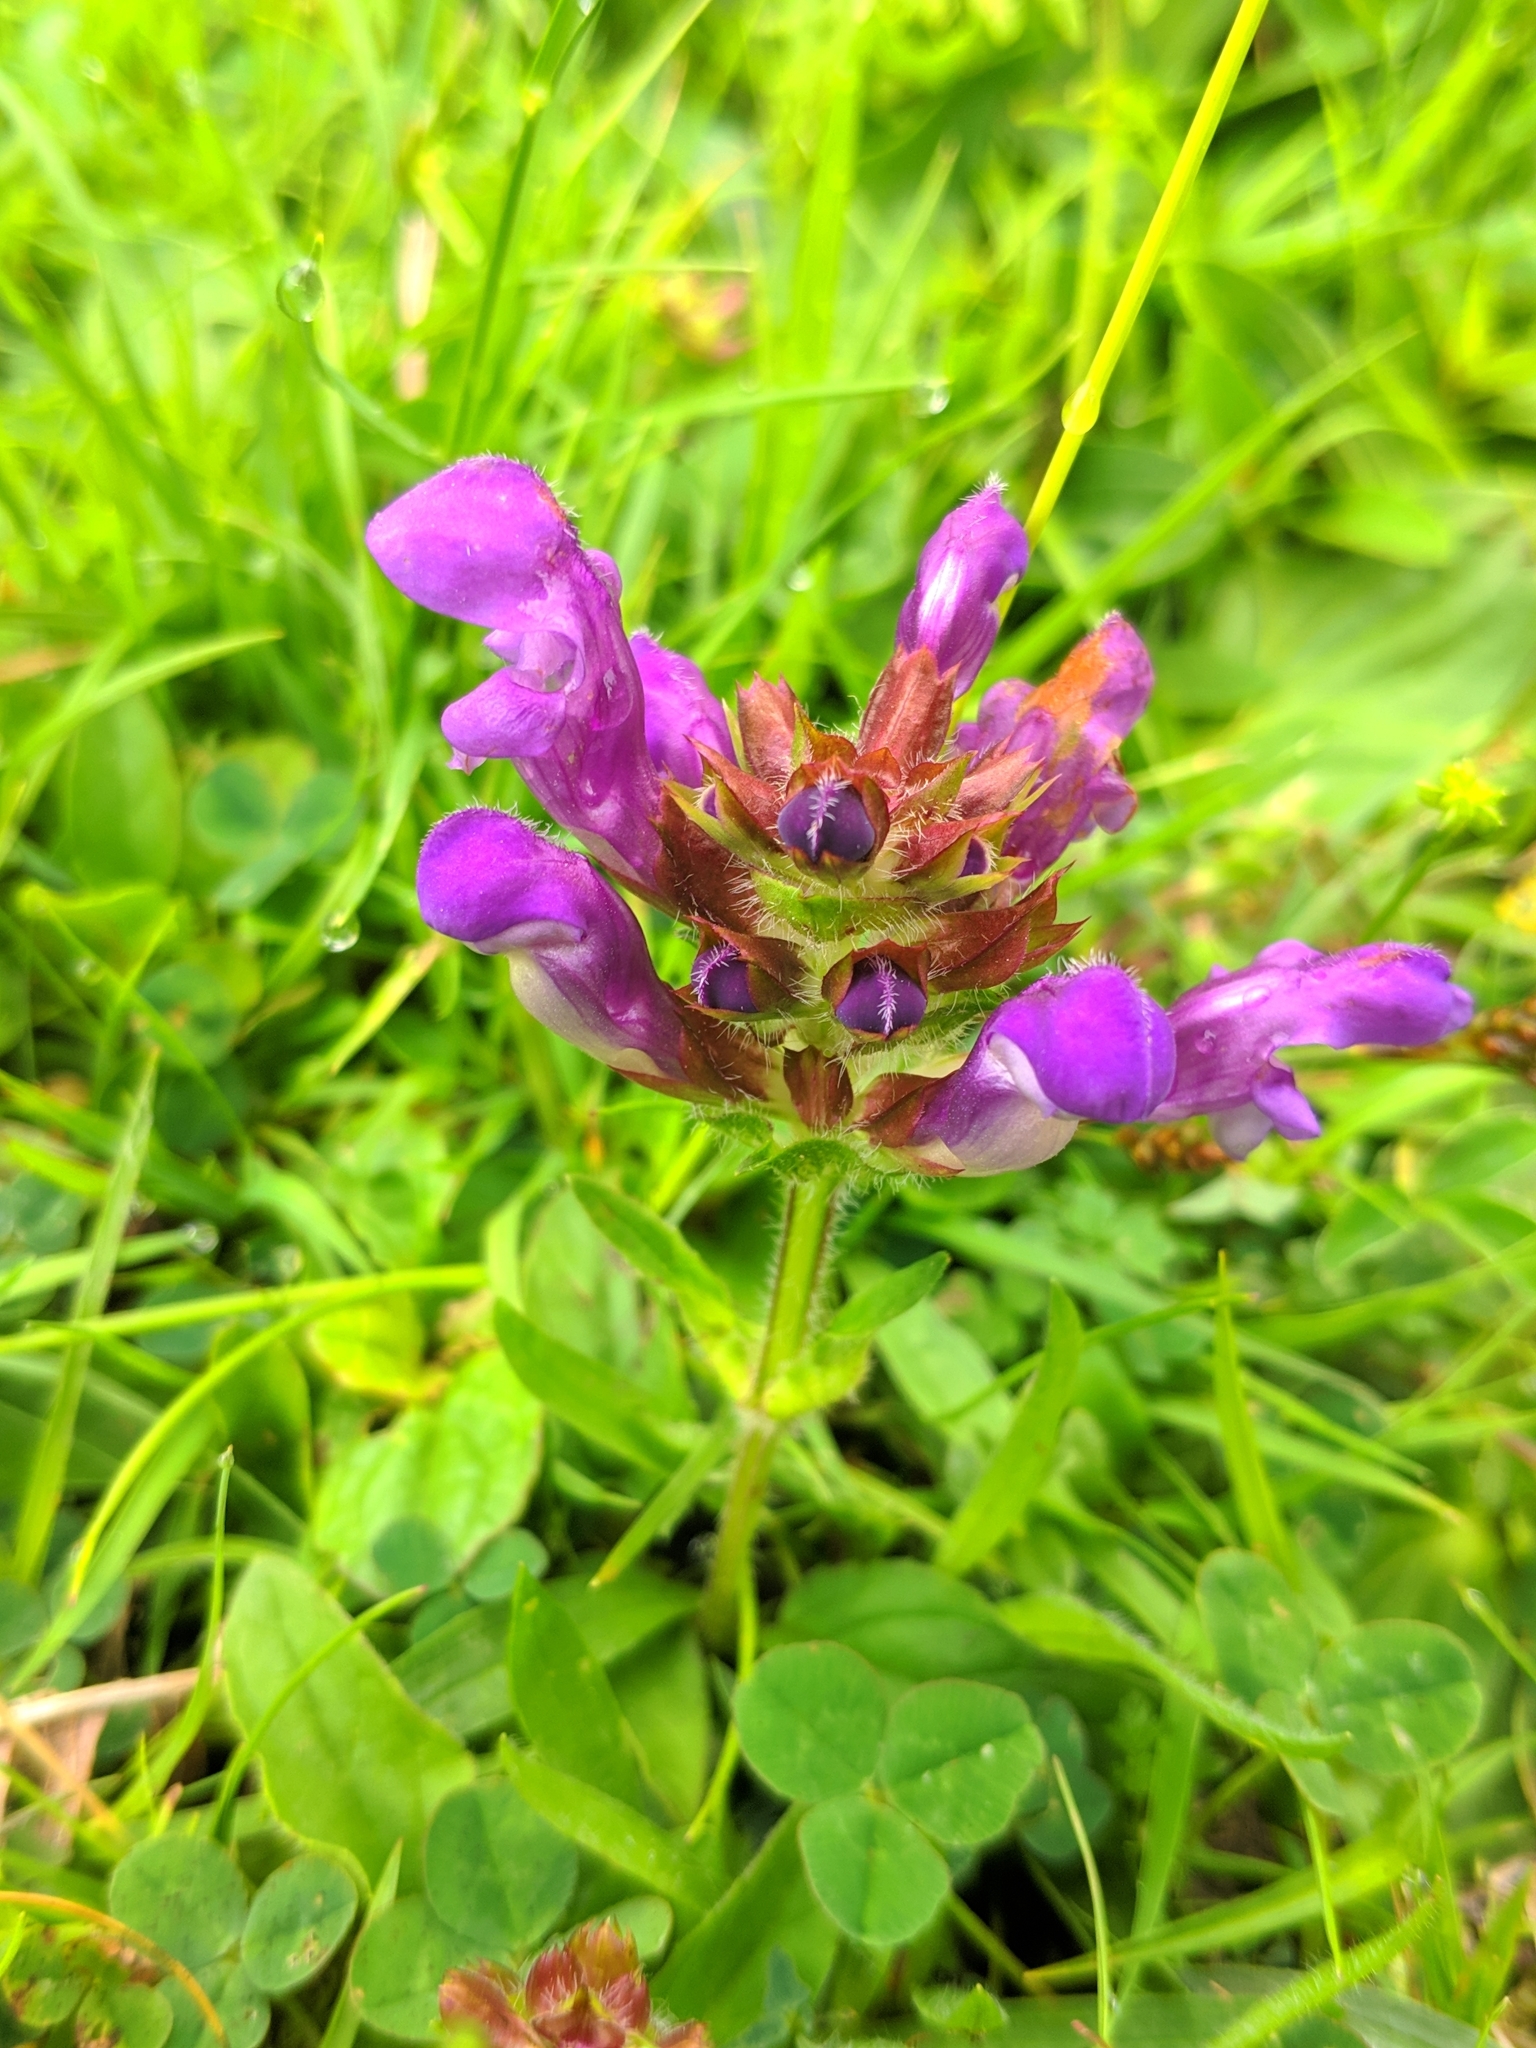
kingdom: Plantae
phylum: Tracheophyta
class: Magnoliopsida
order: Lamiales
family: Lamiaceae
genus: Prunella
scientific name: Prunella grandiflora
